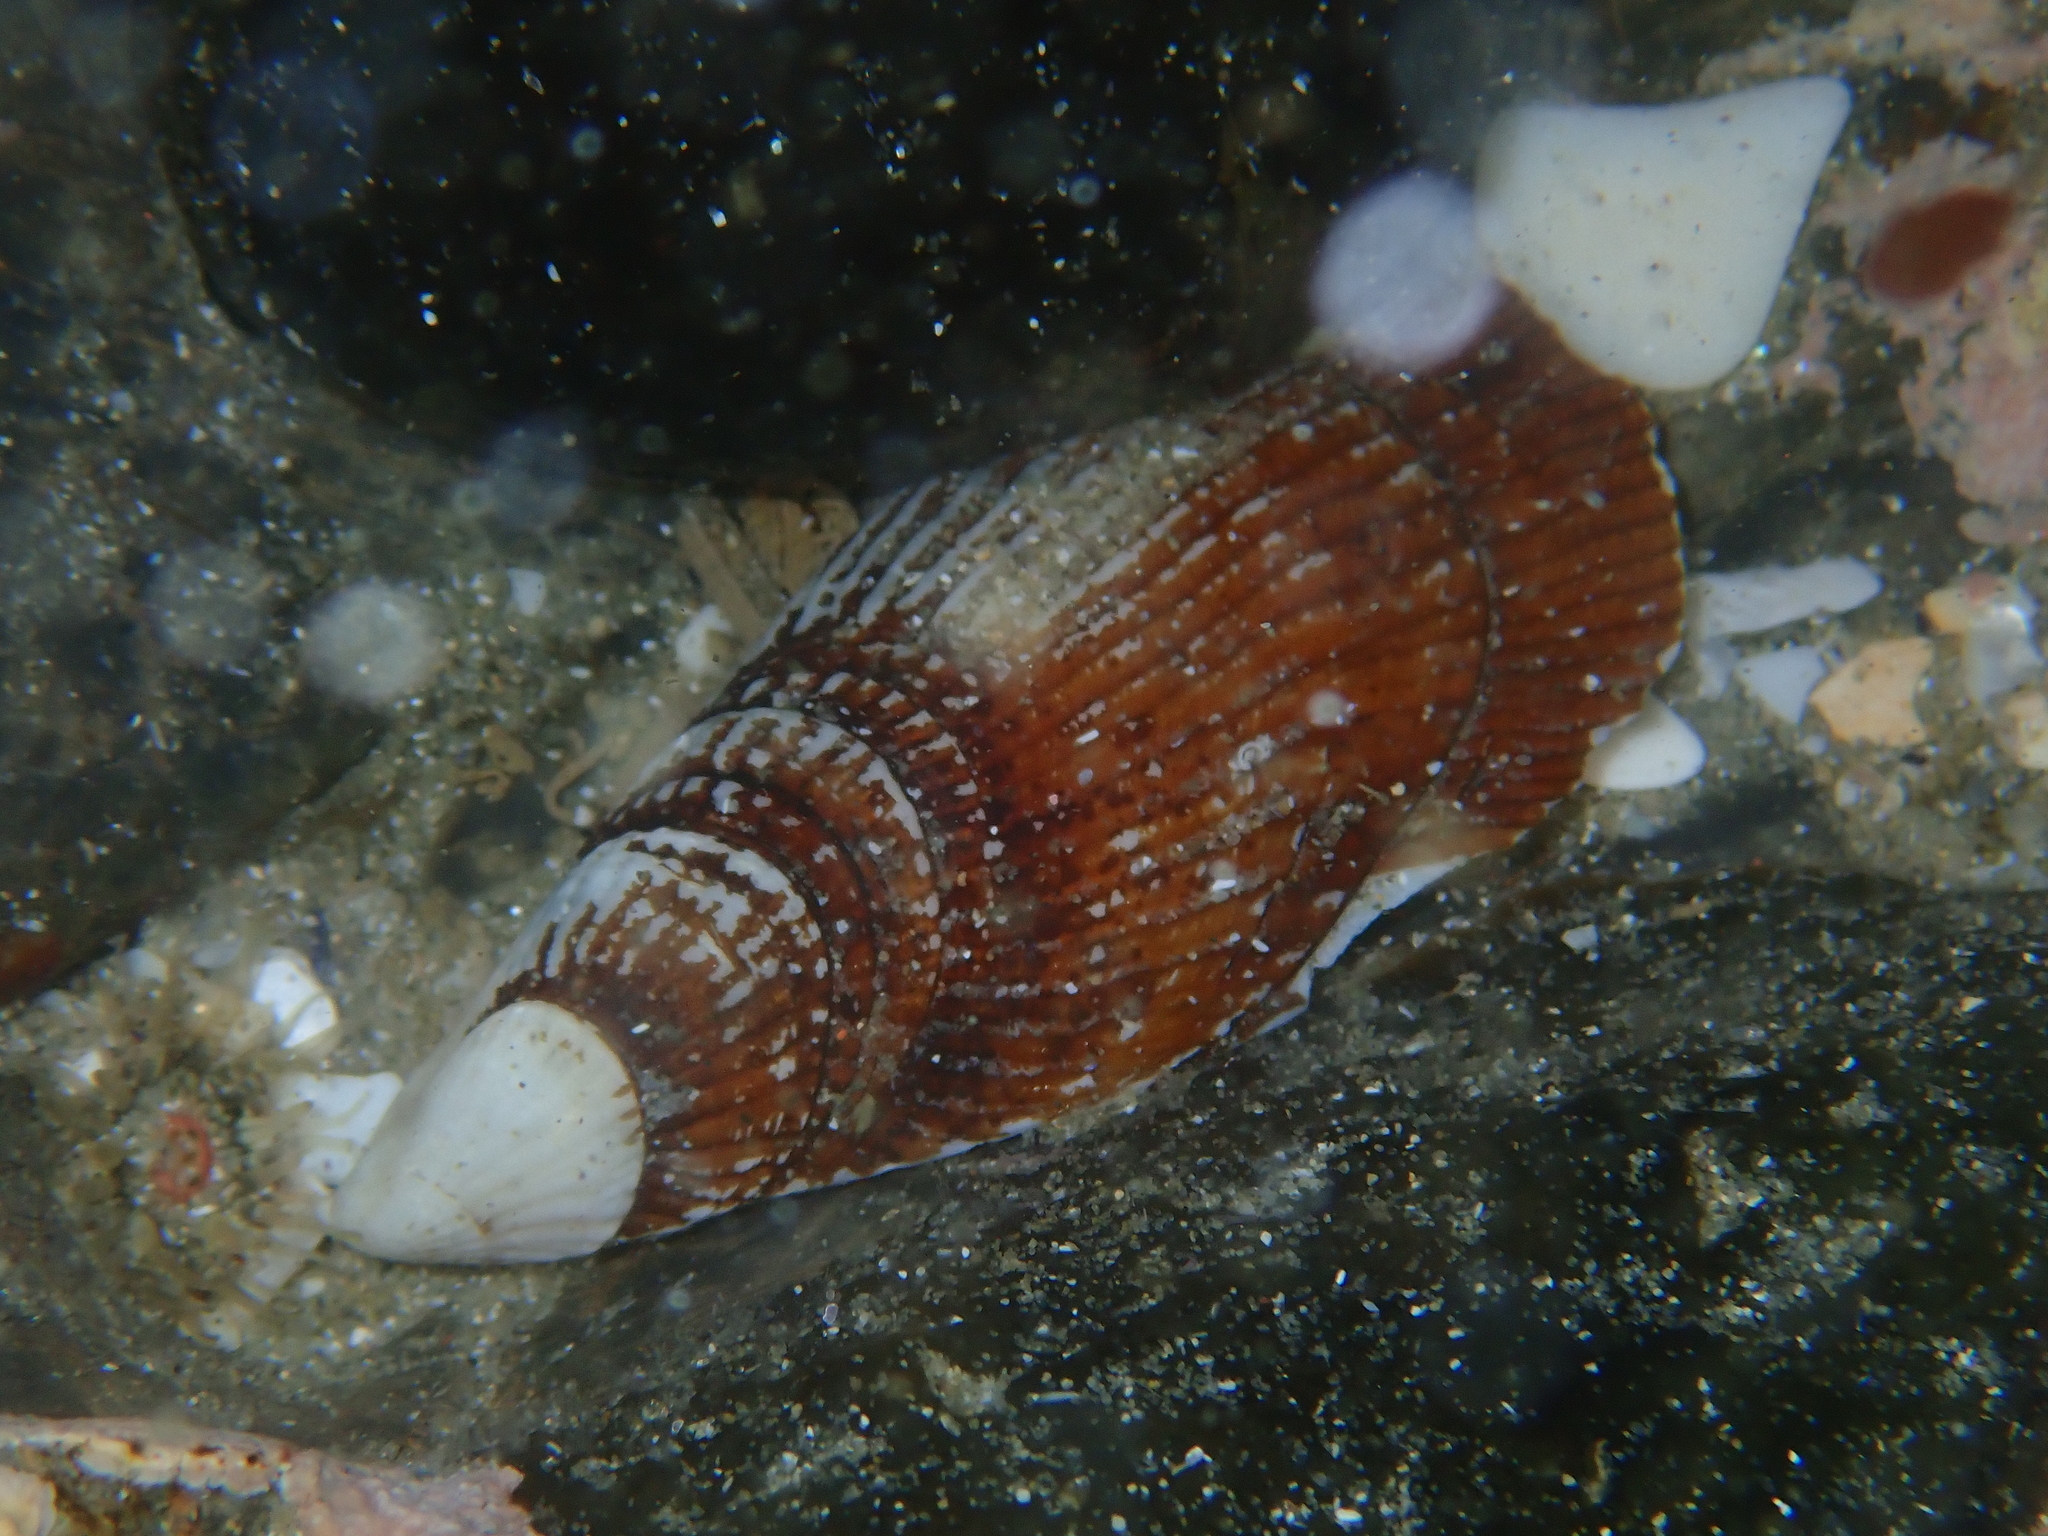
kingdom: Animalia
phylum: Mollusca
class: Bivalvia
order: Mytilida
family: Mytilidae
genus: Aulacomya
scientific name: Aulacomya maoriana
